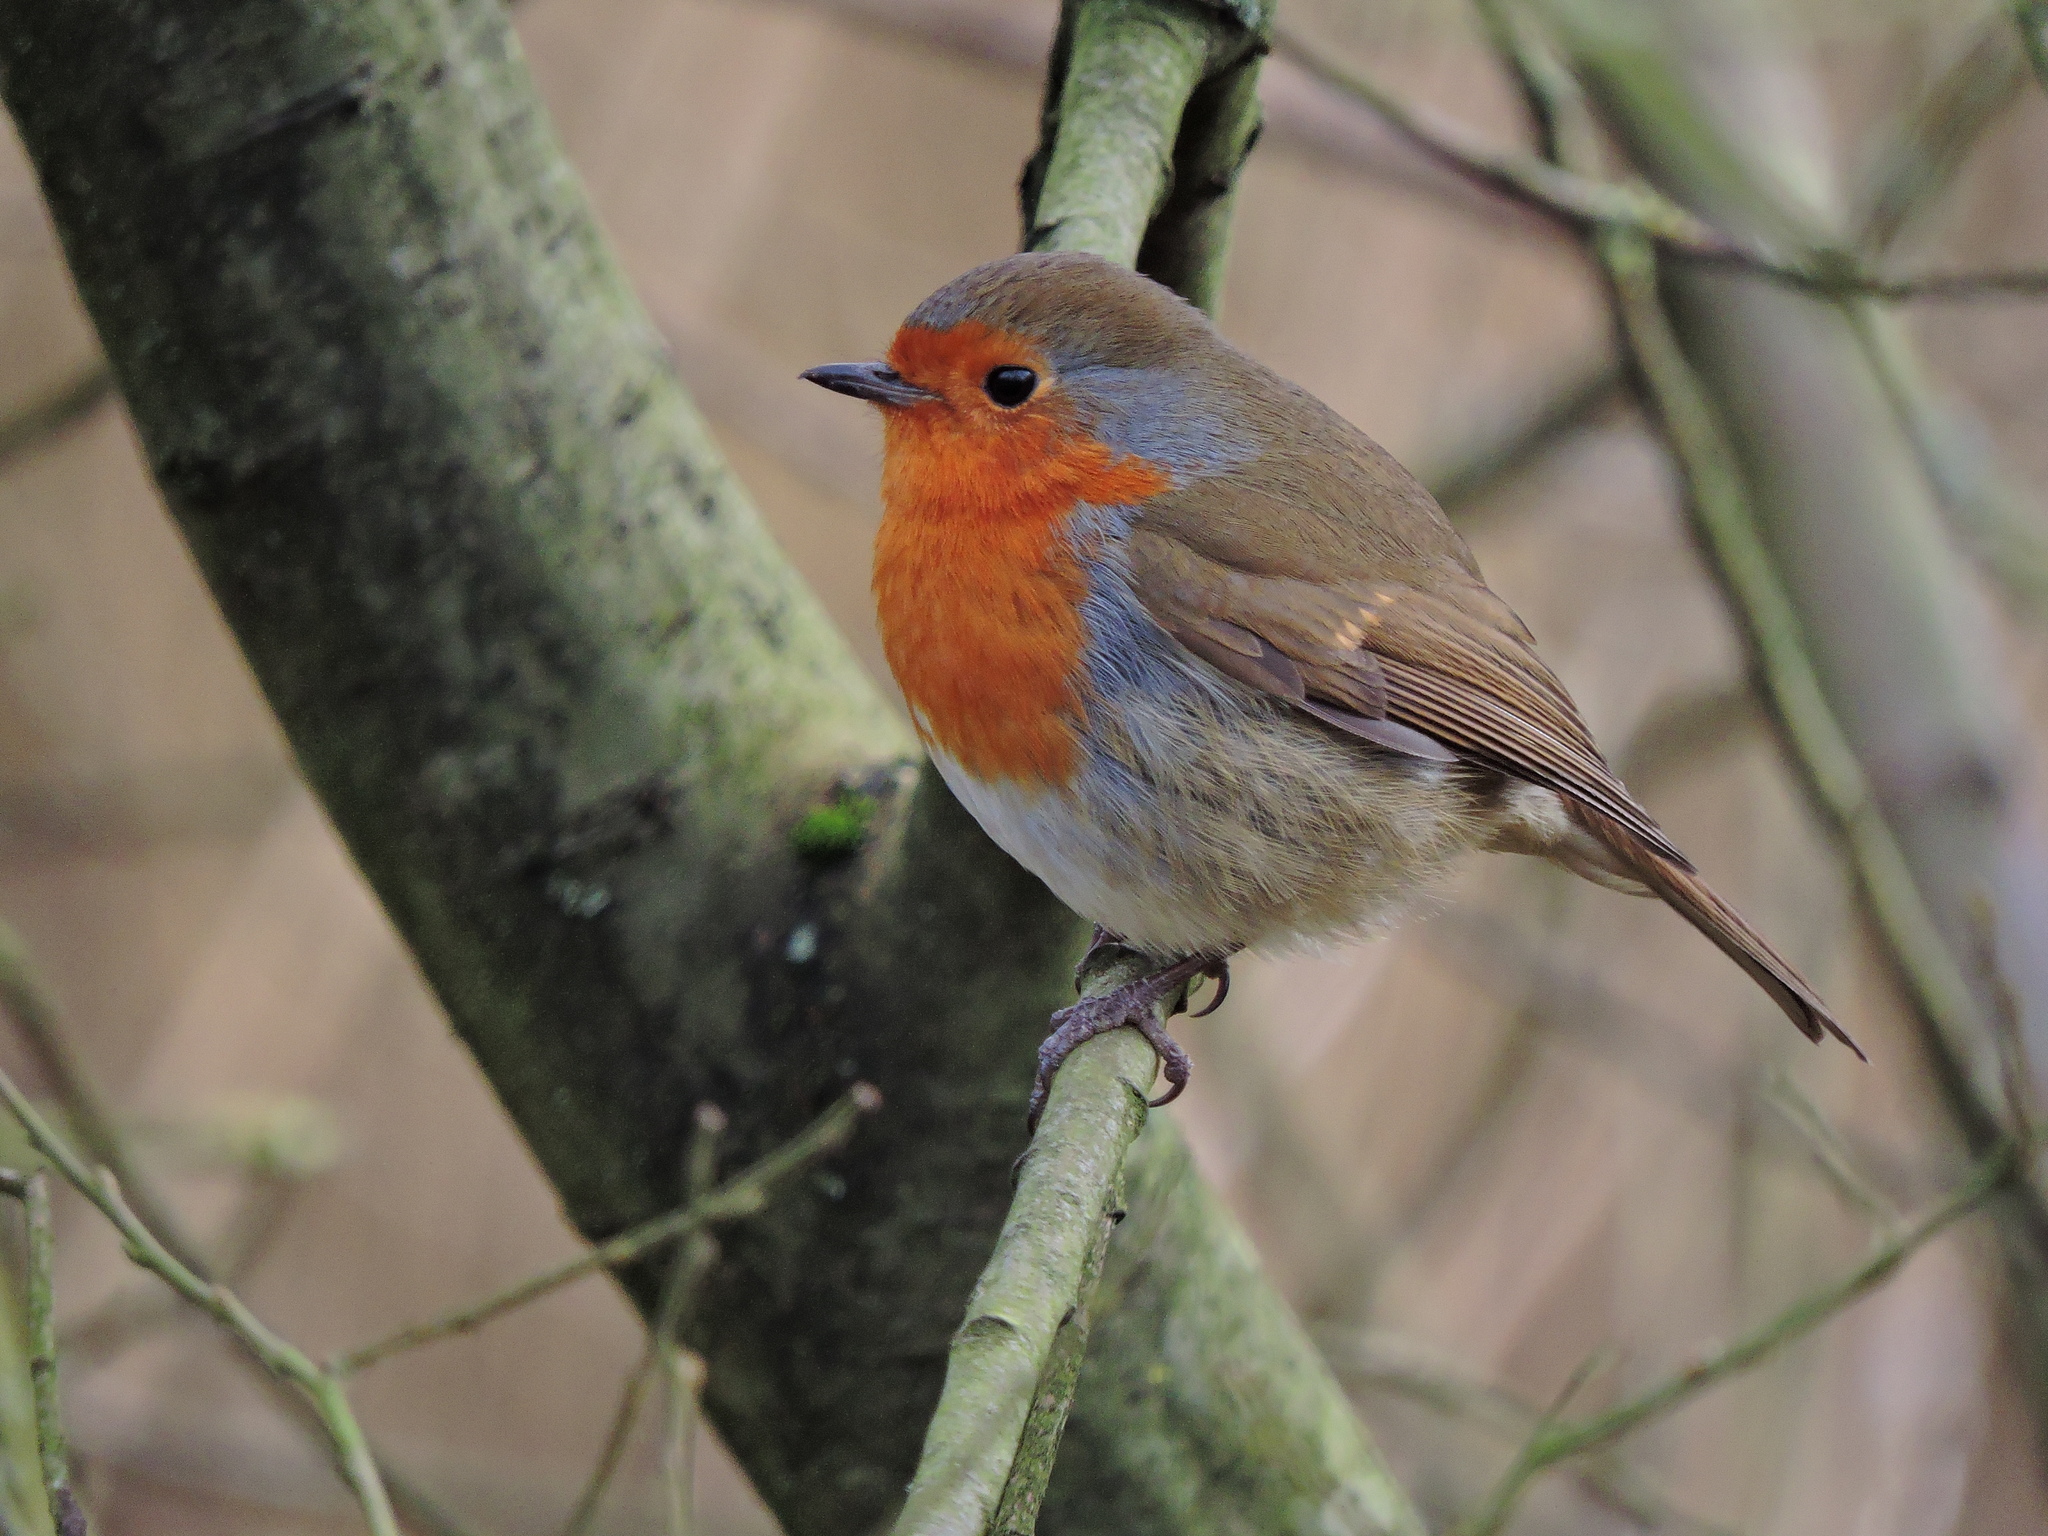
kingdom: Animalia
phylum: Chordata
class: Aves
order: Passeriformes
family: Muscicapidae
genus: Erithacus
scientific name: Erithacus rubecula
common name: European robin
